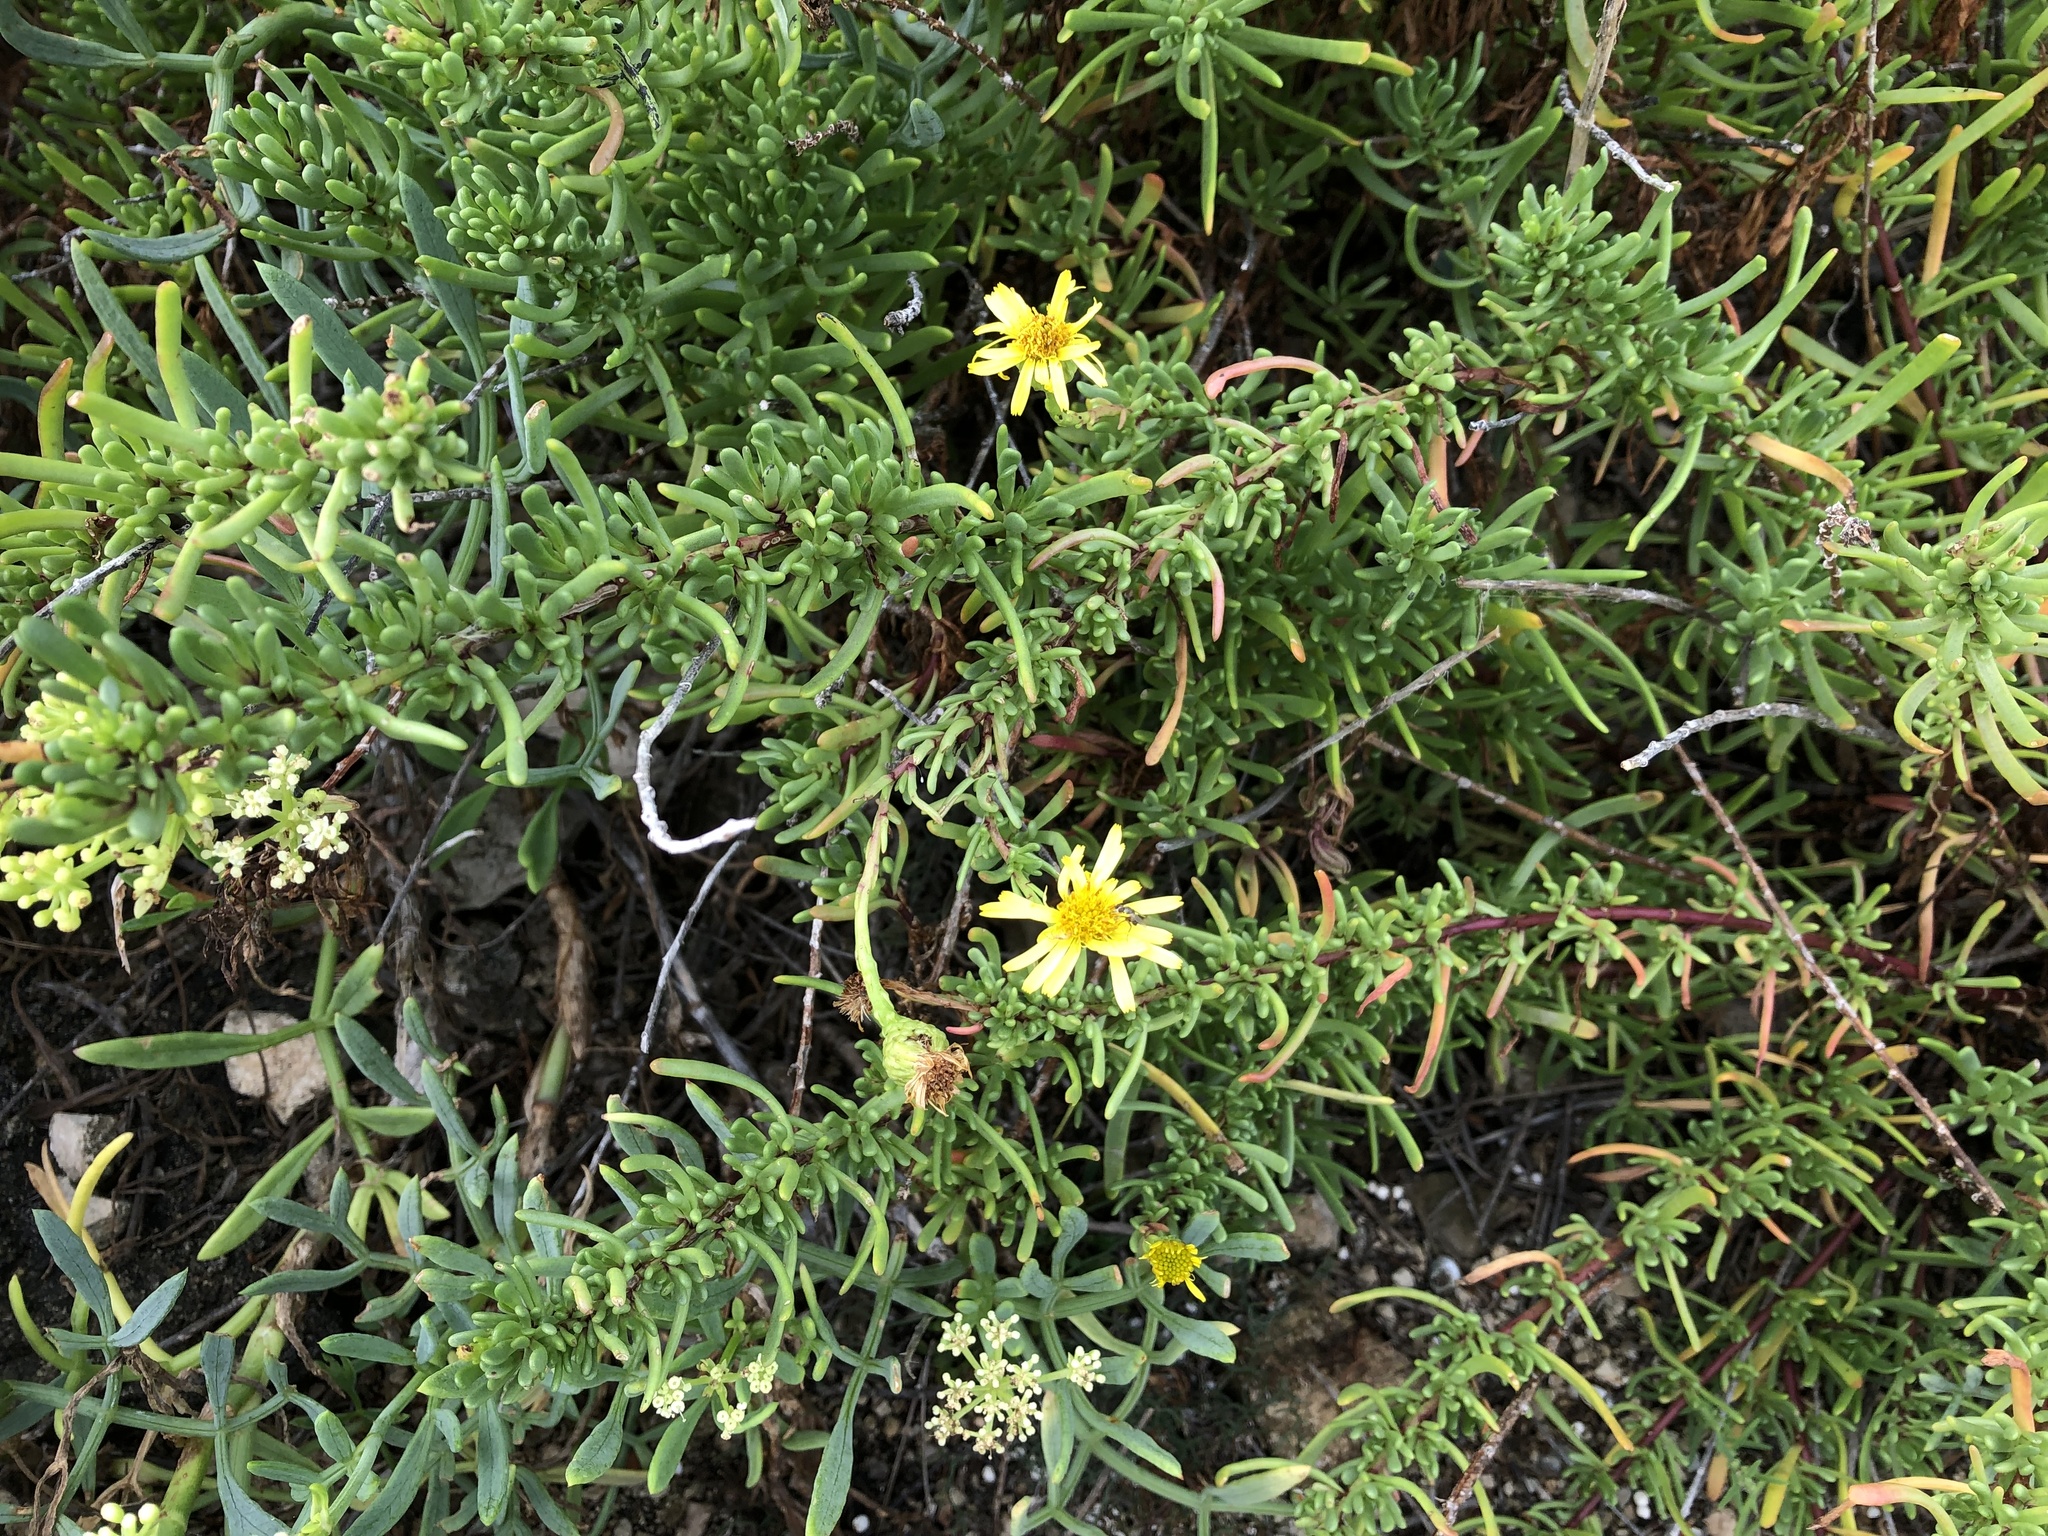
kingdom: Plantae
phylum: Tracheophyta
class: Magnoliopsida
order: Asterales
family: Asteraceae
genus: Limbarda
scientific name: Limbarda crithmoides
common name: Golden samphire
